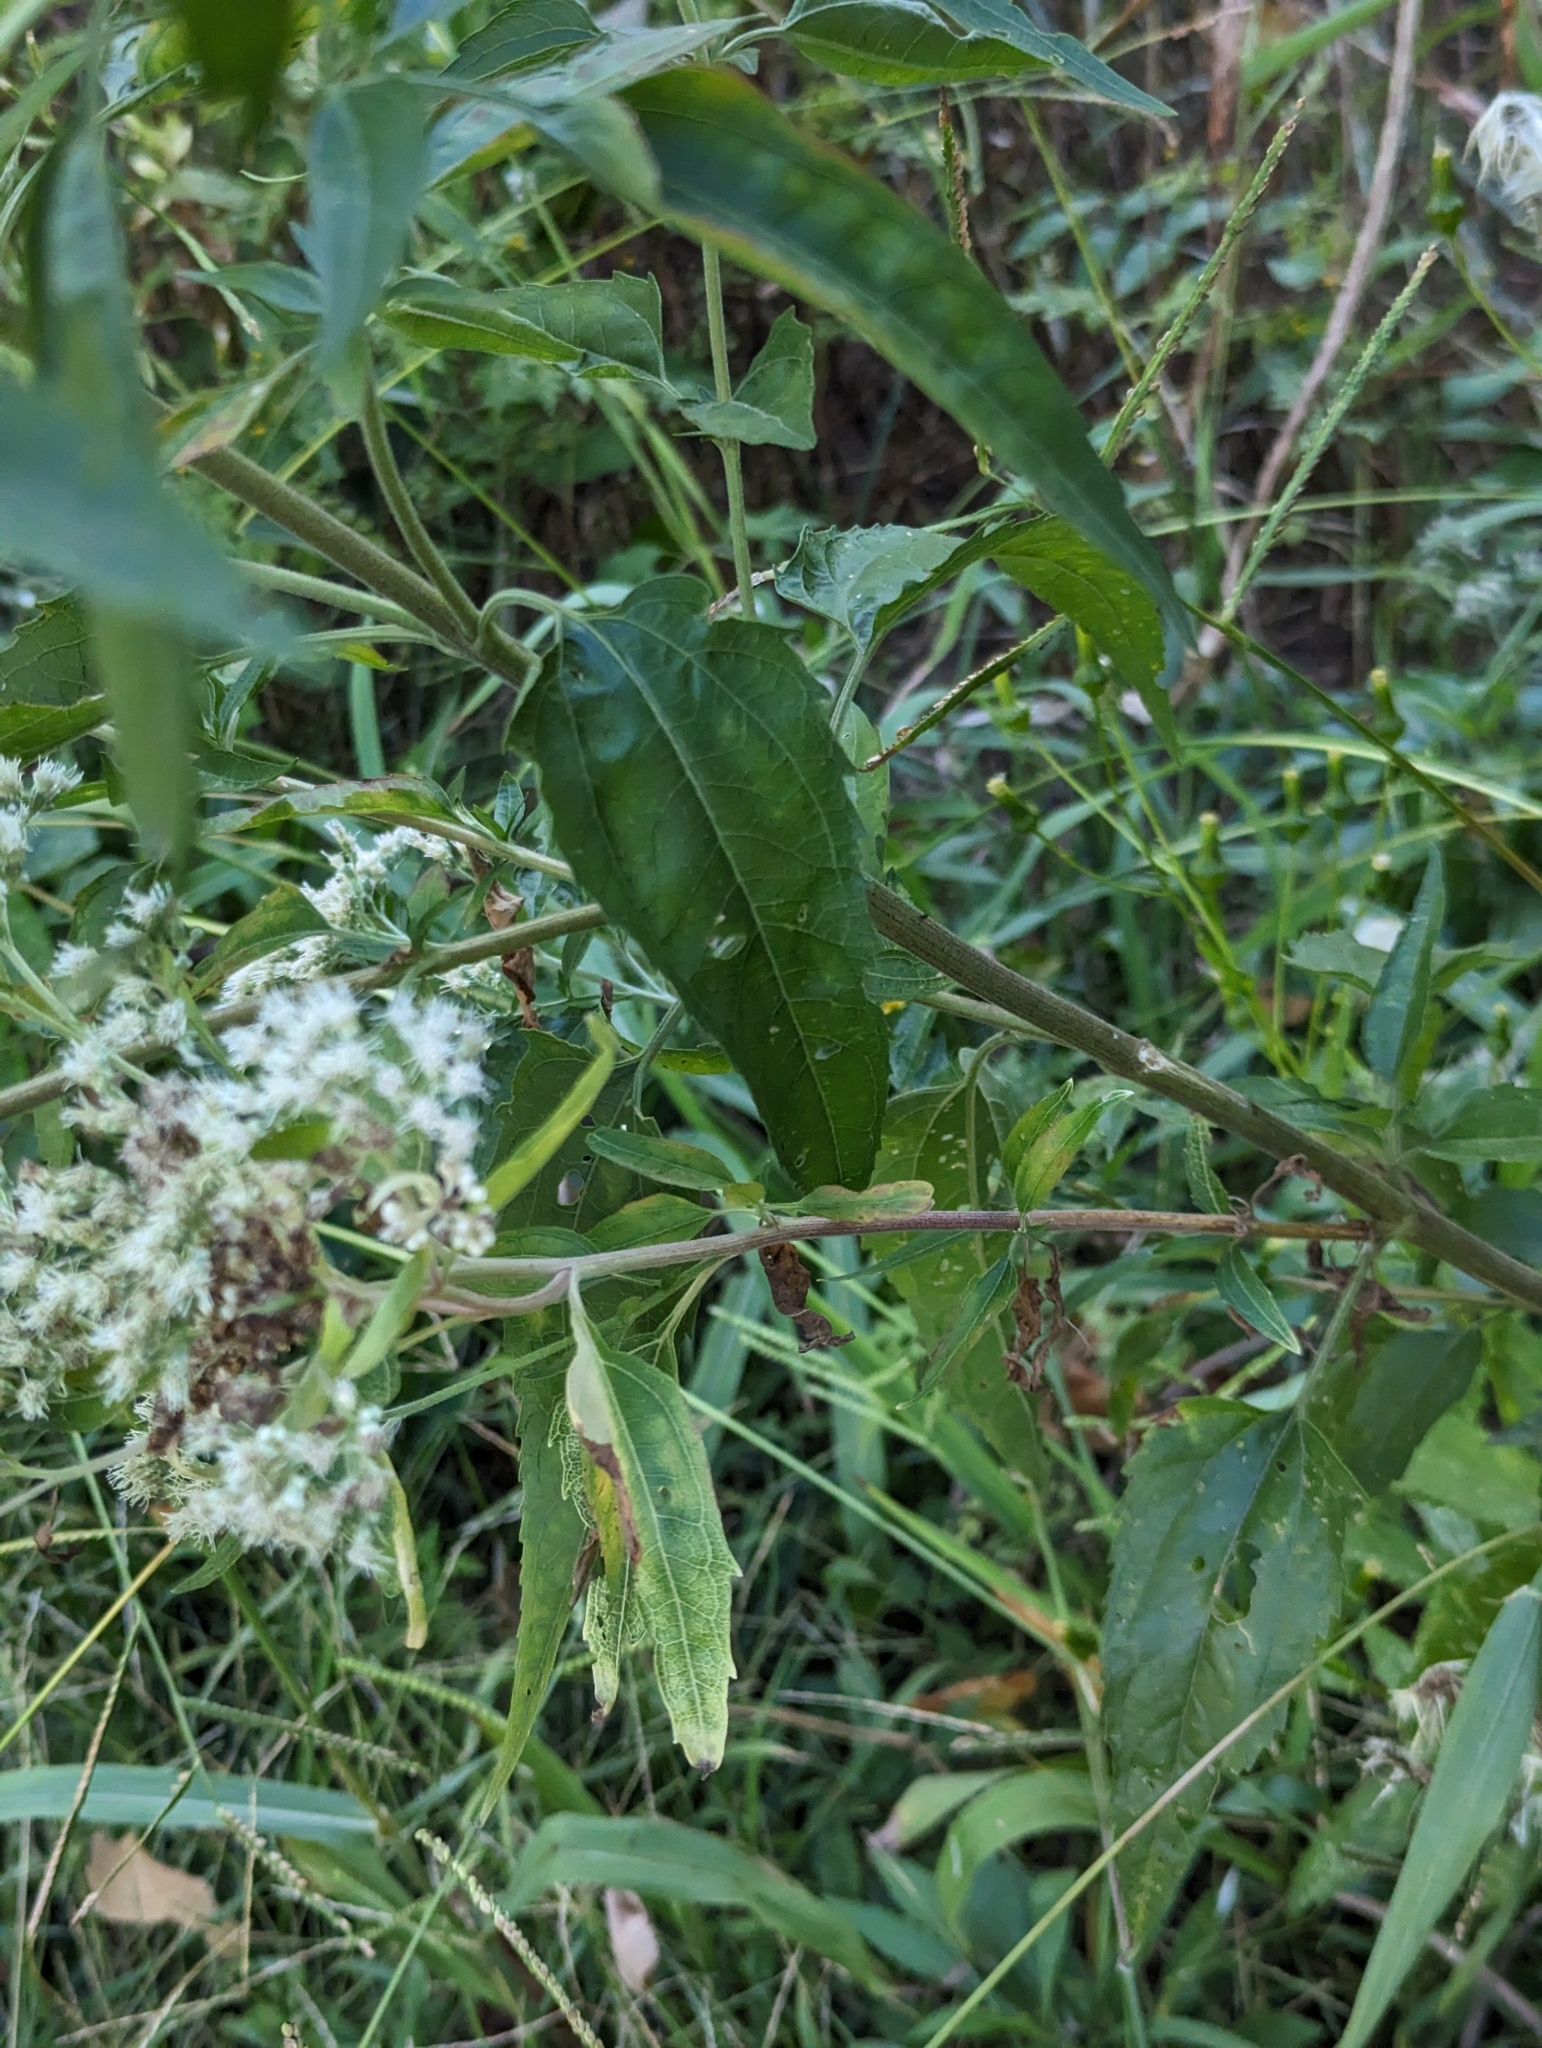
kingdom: Plantae
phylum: Tracheophyta
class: Magnoliopsida
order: Asterales
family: Asteraceae
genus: Eupatorium
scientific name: Eupatorium serotinum
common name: Late boneset
